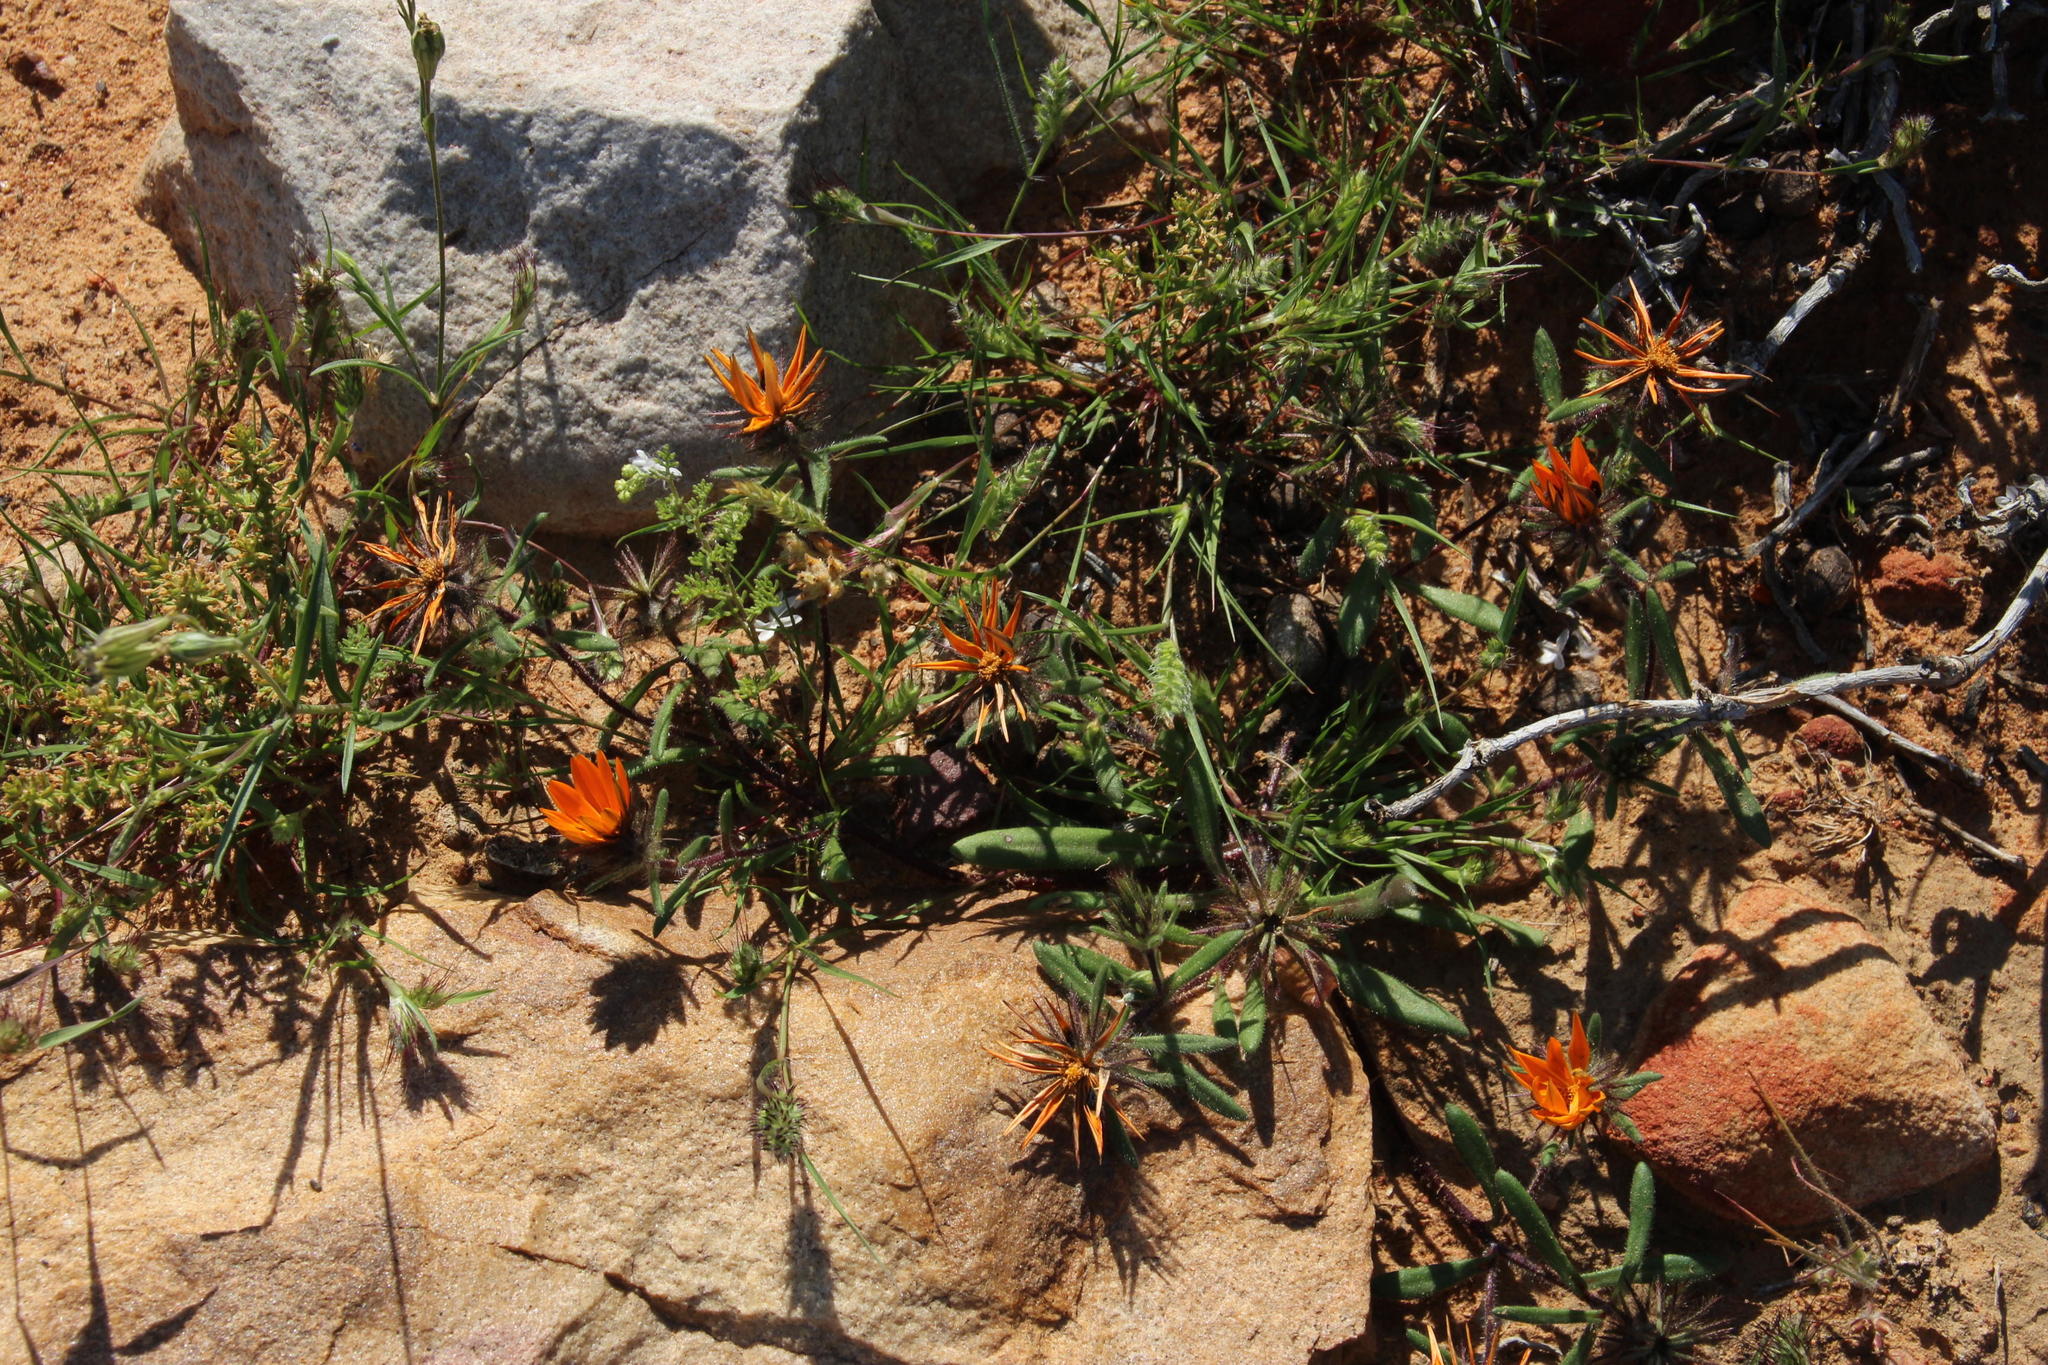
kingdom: Plantae
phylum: Tracheophyta
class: Magnoliopsida
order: Asterales
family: Asteraceae
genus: Gorteria
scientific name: Gorteria diffusa
